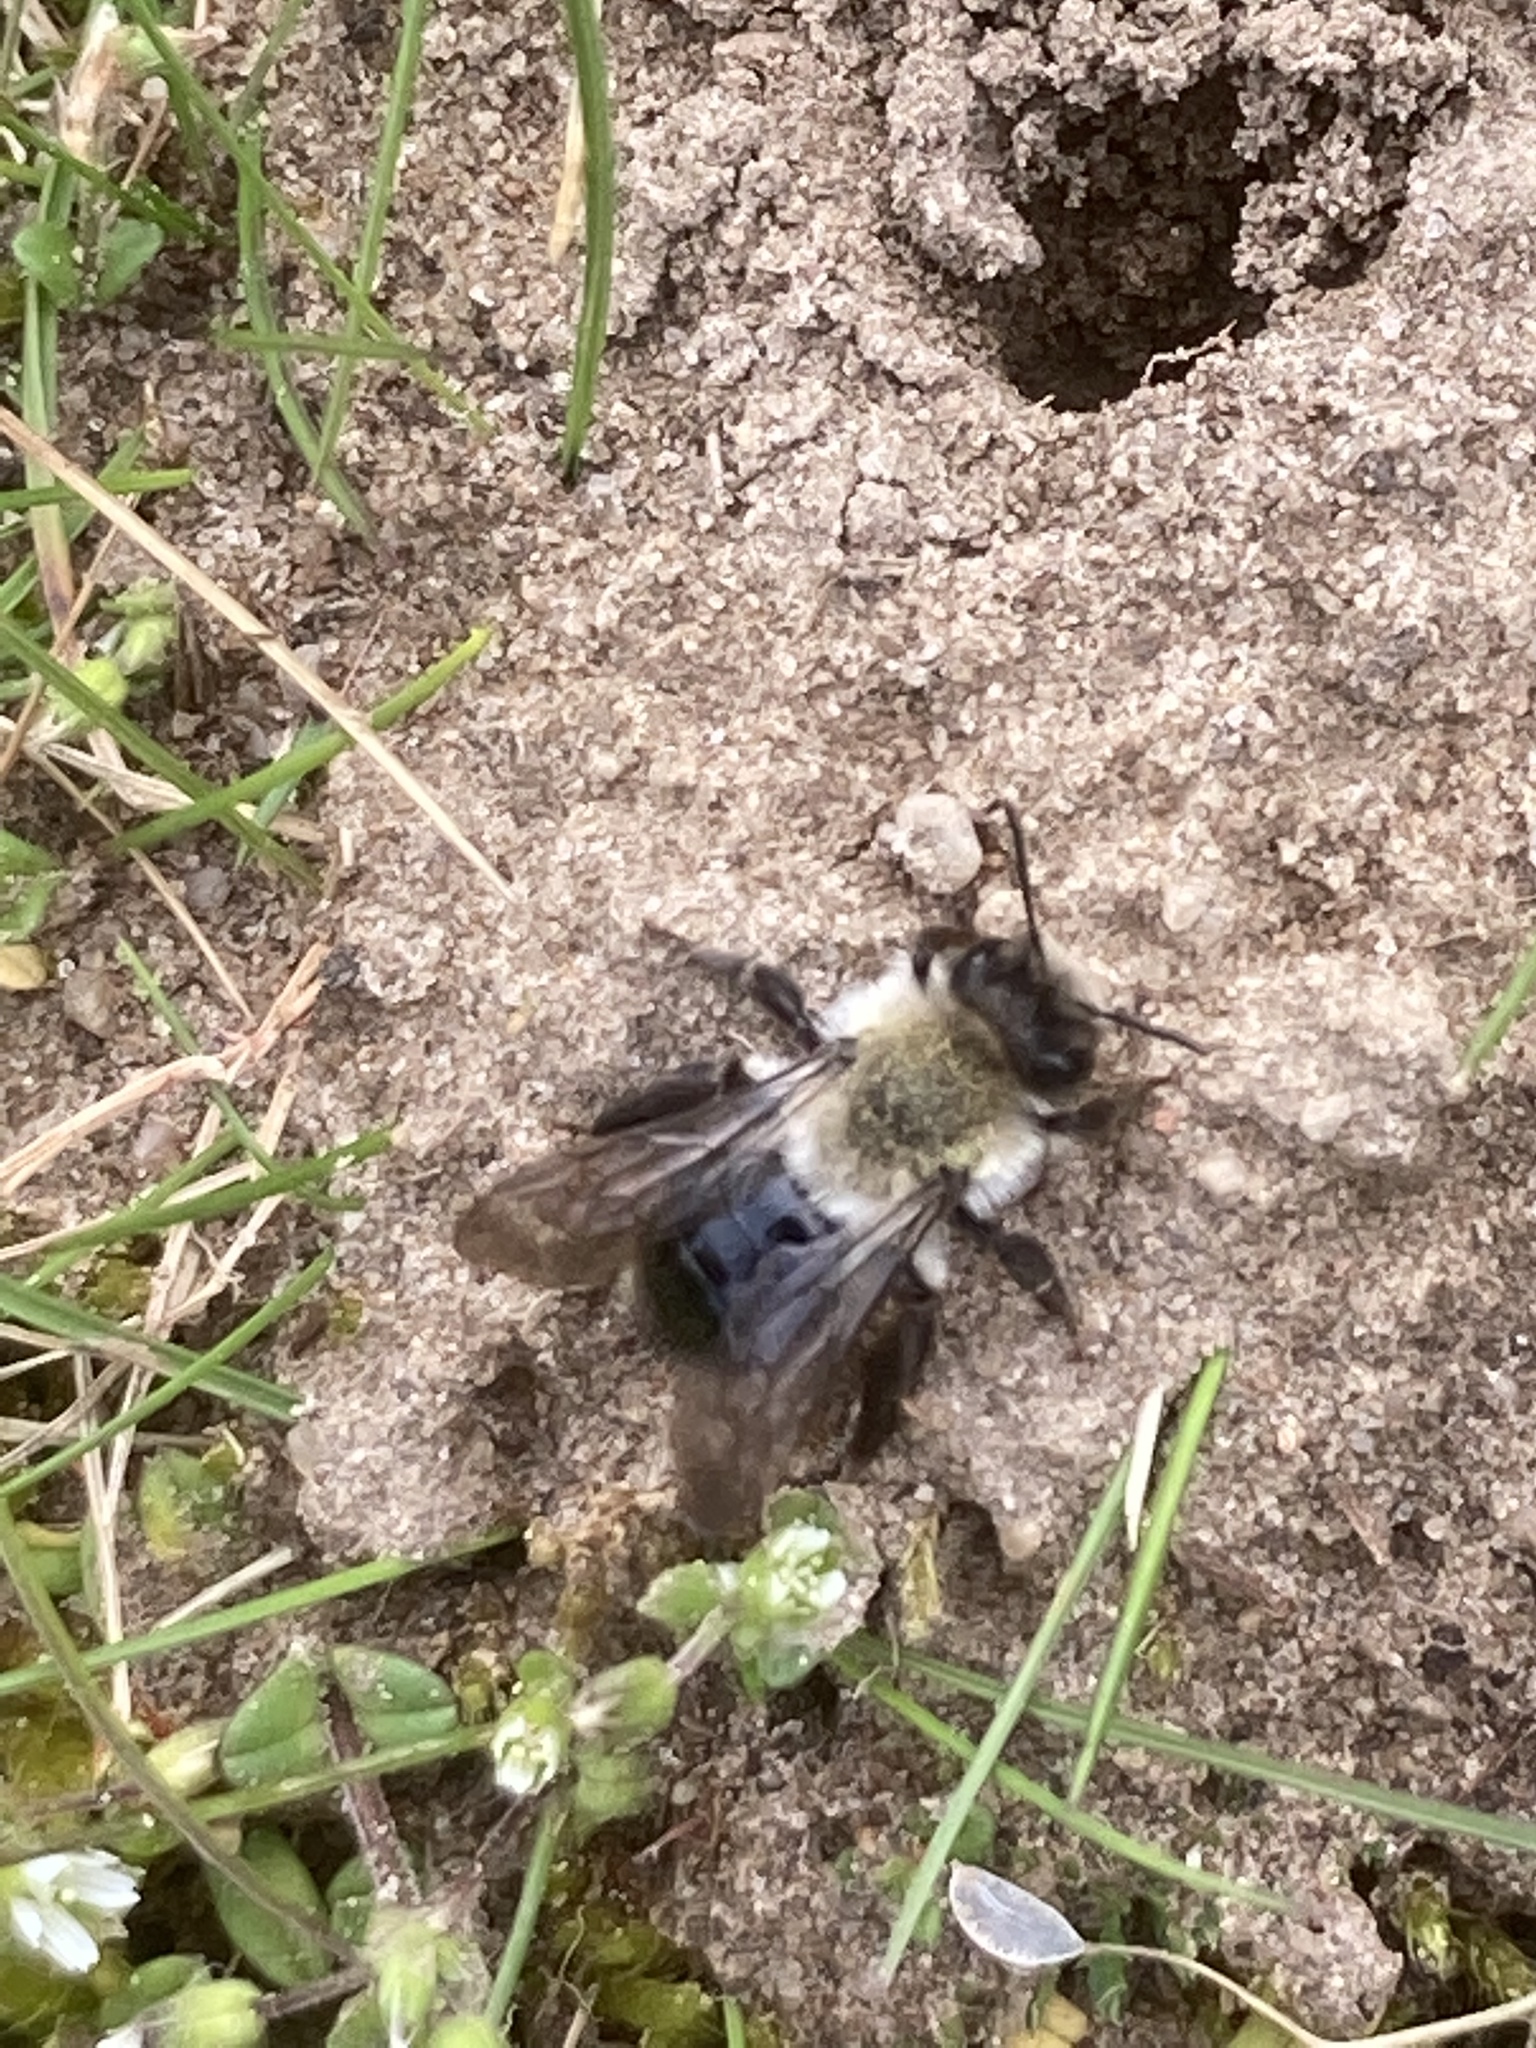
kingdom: Animalia
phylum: Arthropoda
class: Insecta
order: Hymenoptera
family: Andrenidae
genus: Andrena
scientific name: Andrena vaga
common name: Grey-backed mining bee
